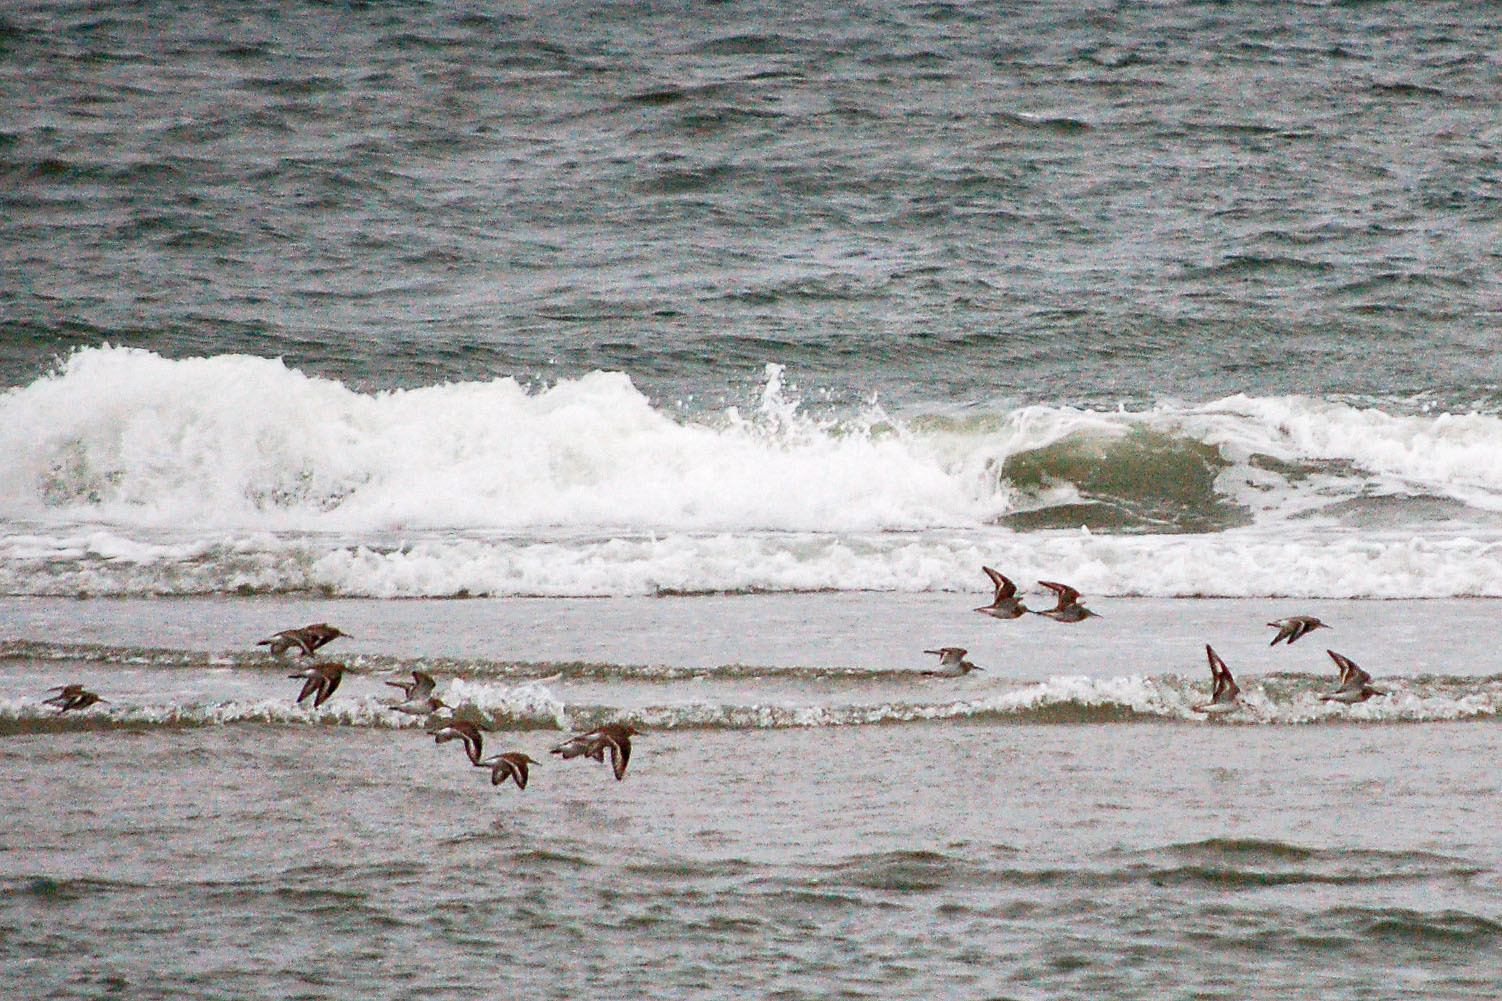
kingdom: Animalia
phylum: Chordata
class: Aves
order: Charadriiformes
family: Scolopacidae
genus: Calidris
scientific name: Calidris alpina
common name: Dunlin
